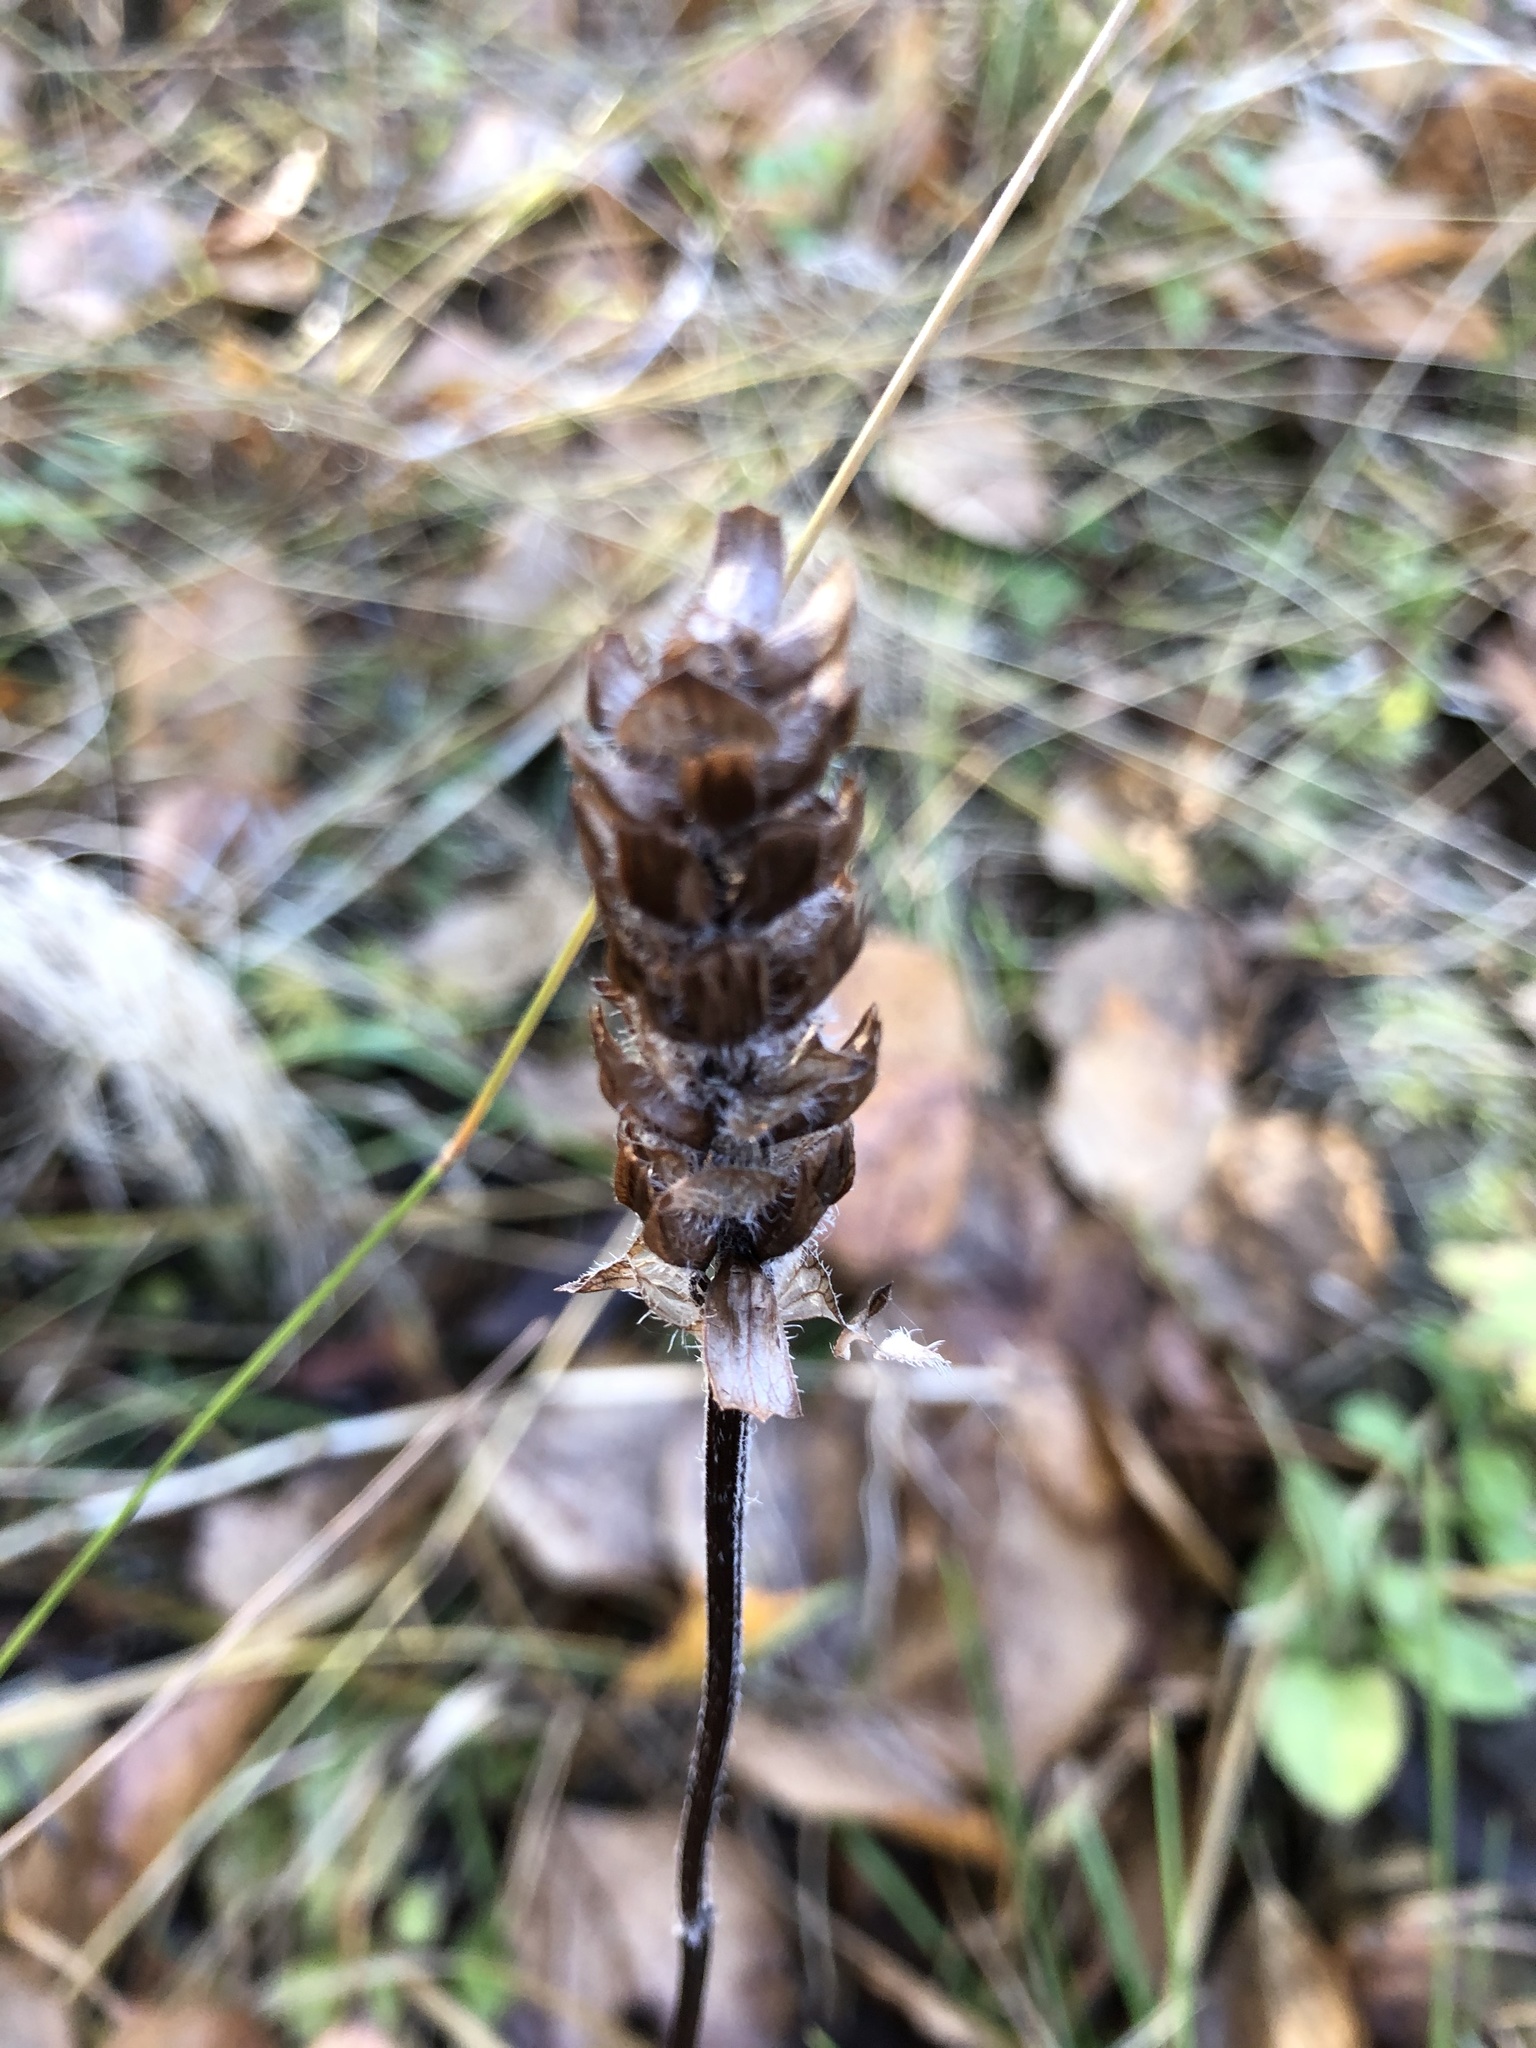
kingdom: Plantae
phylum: Tracheophyta
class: Magnoliopsida
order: Lamiales
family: Lamiaceae
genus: Prunella
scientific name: Prunella vulgaris
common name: Heal-all
